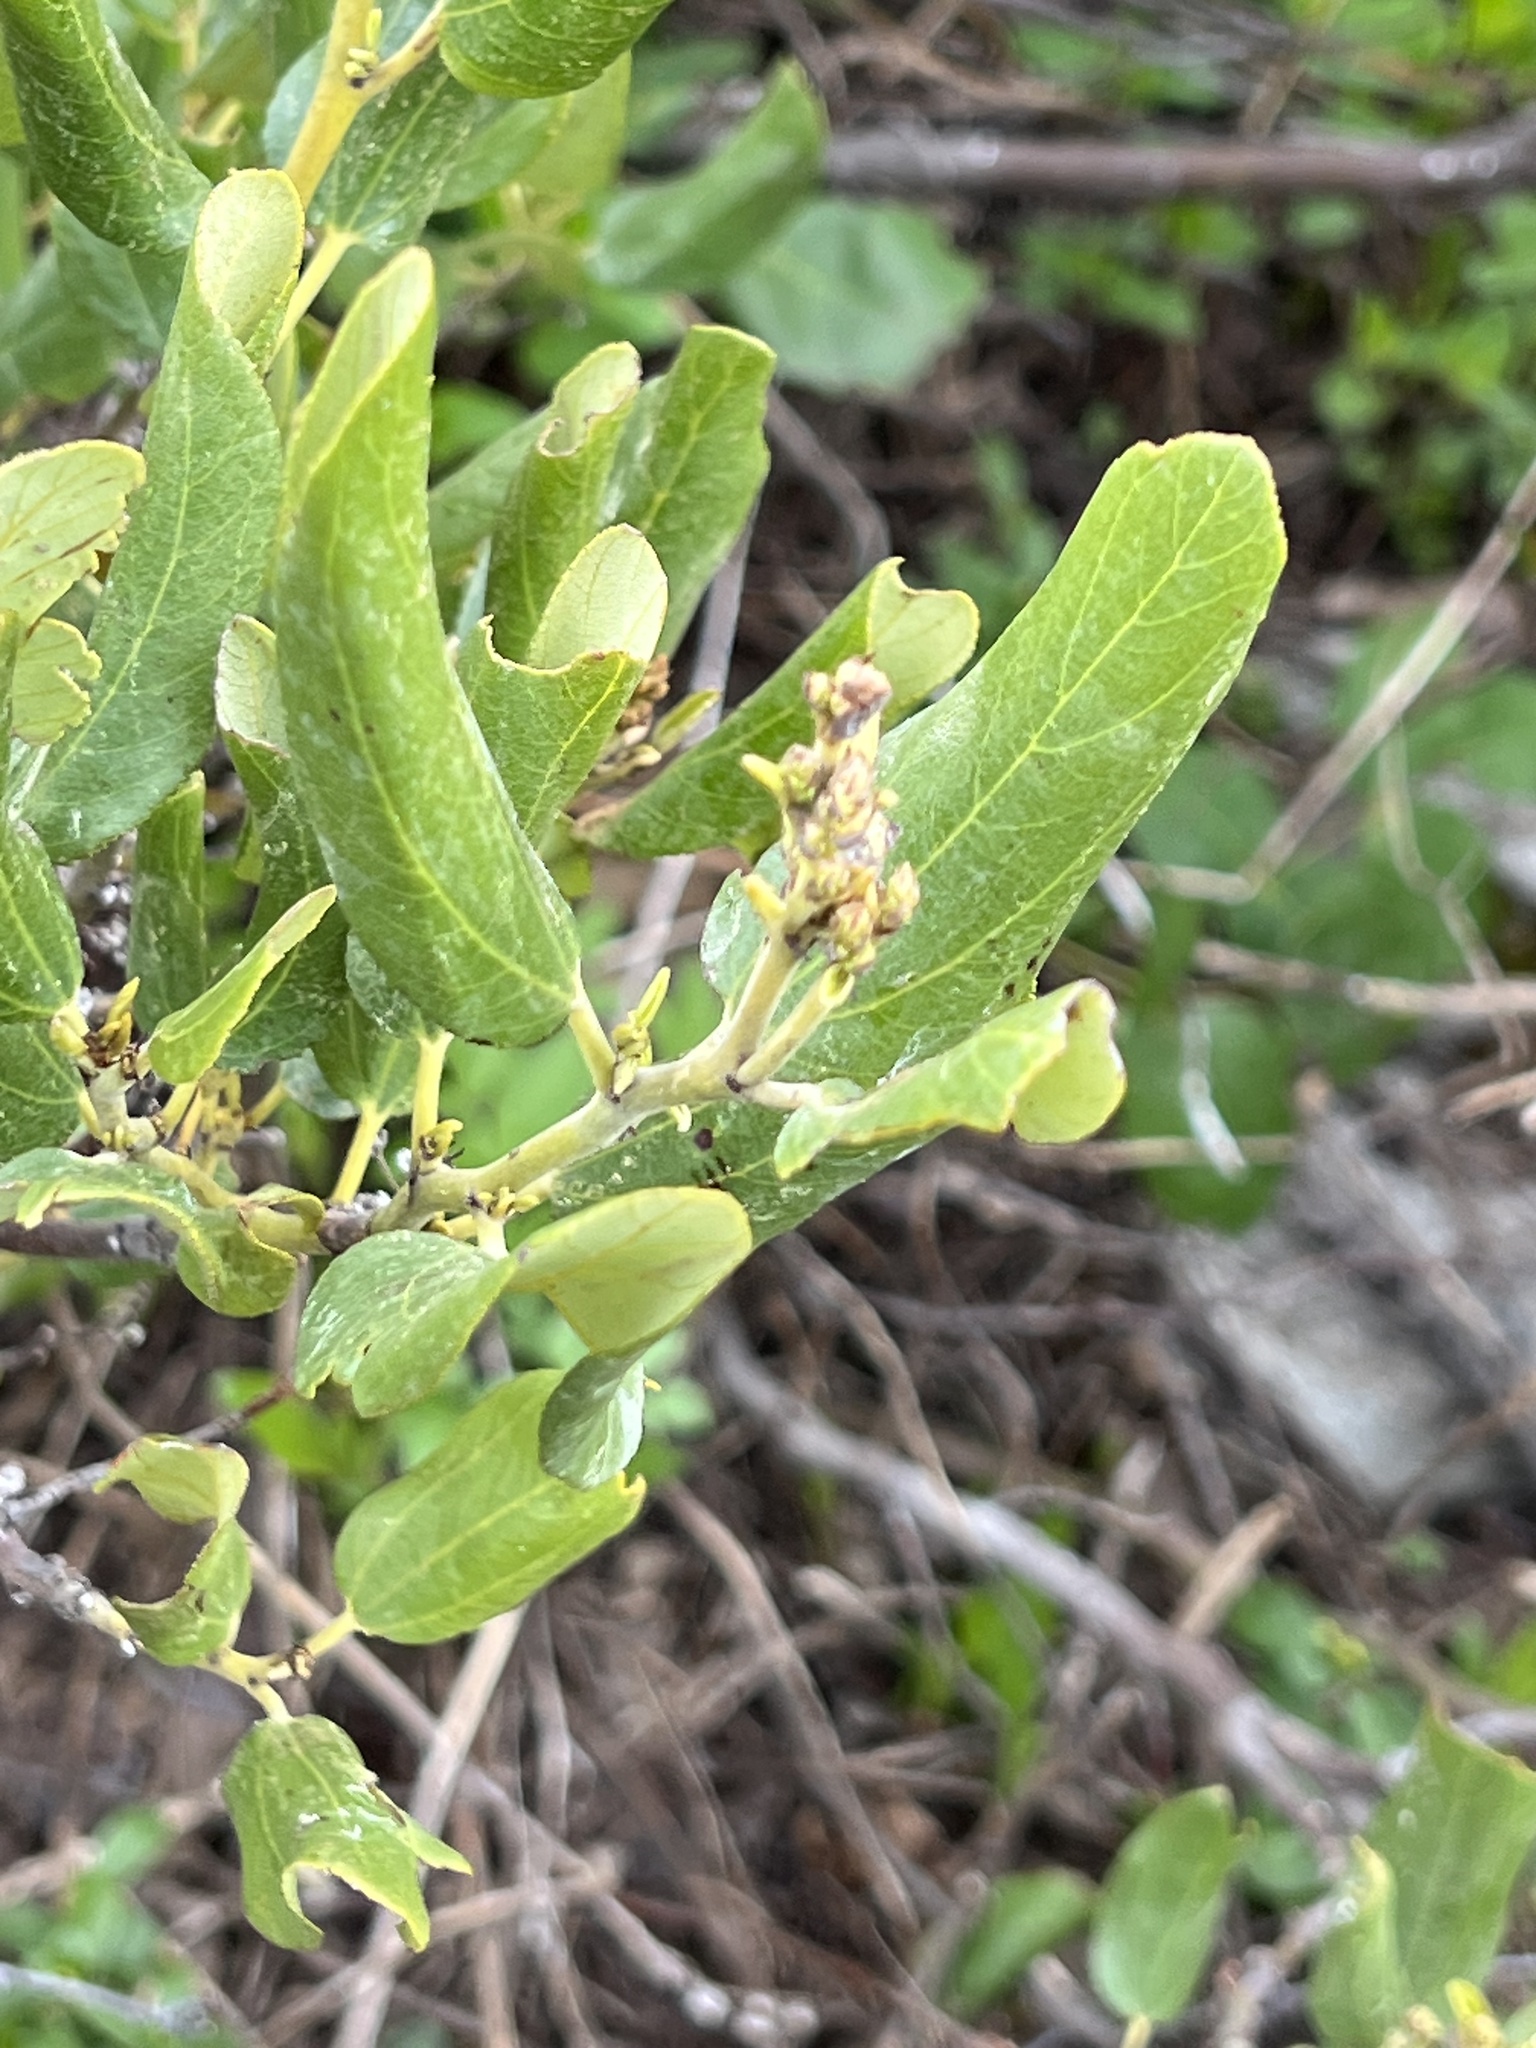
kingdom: Plantae
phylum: Tracheophyta
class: Magnoliopsida
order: Rosales
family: Rhamnaceae
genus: Ceanothus
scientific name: Ceanothus velutinus
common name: Snowbrush
